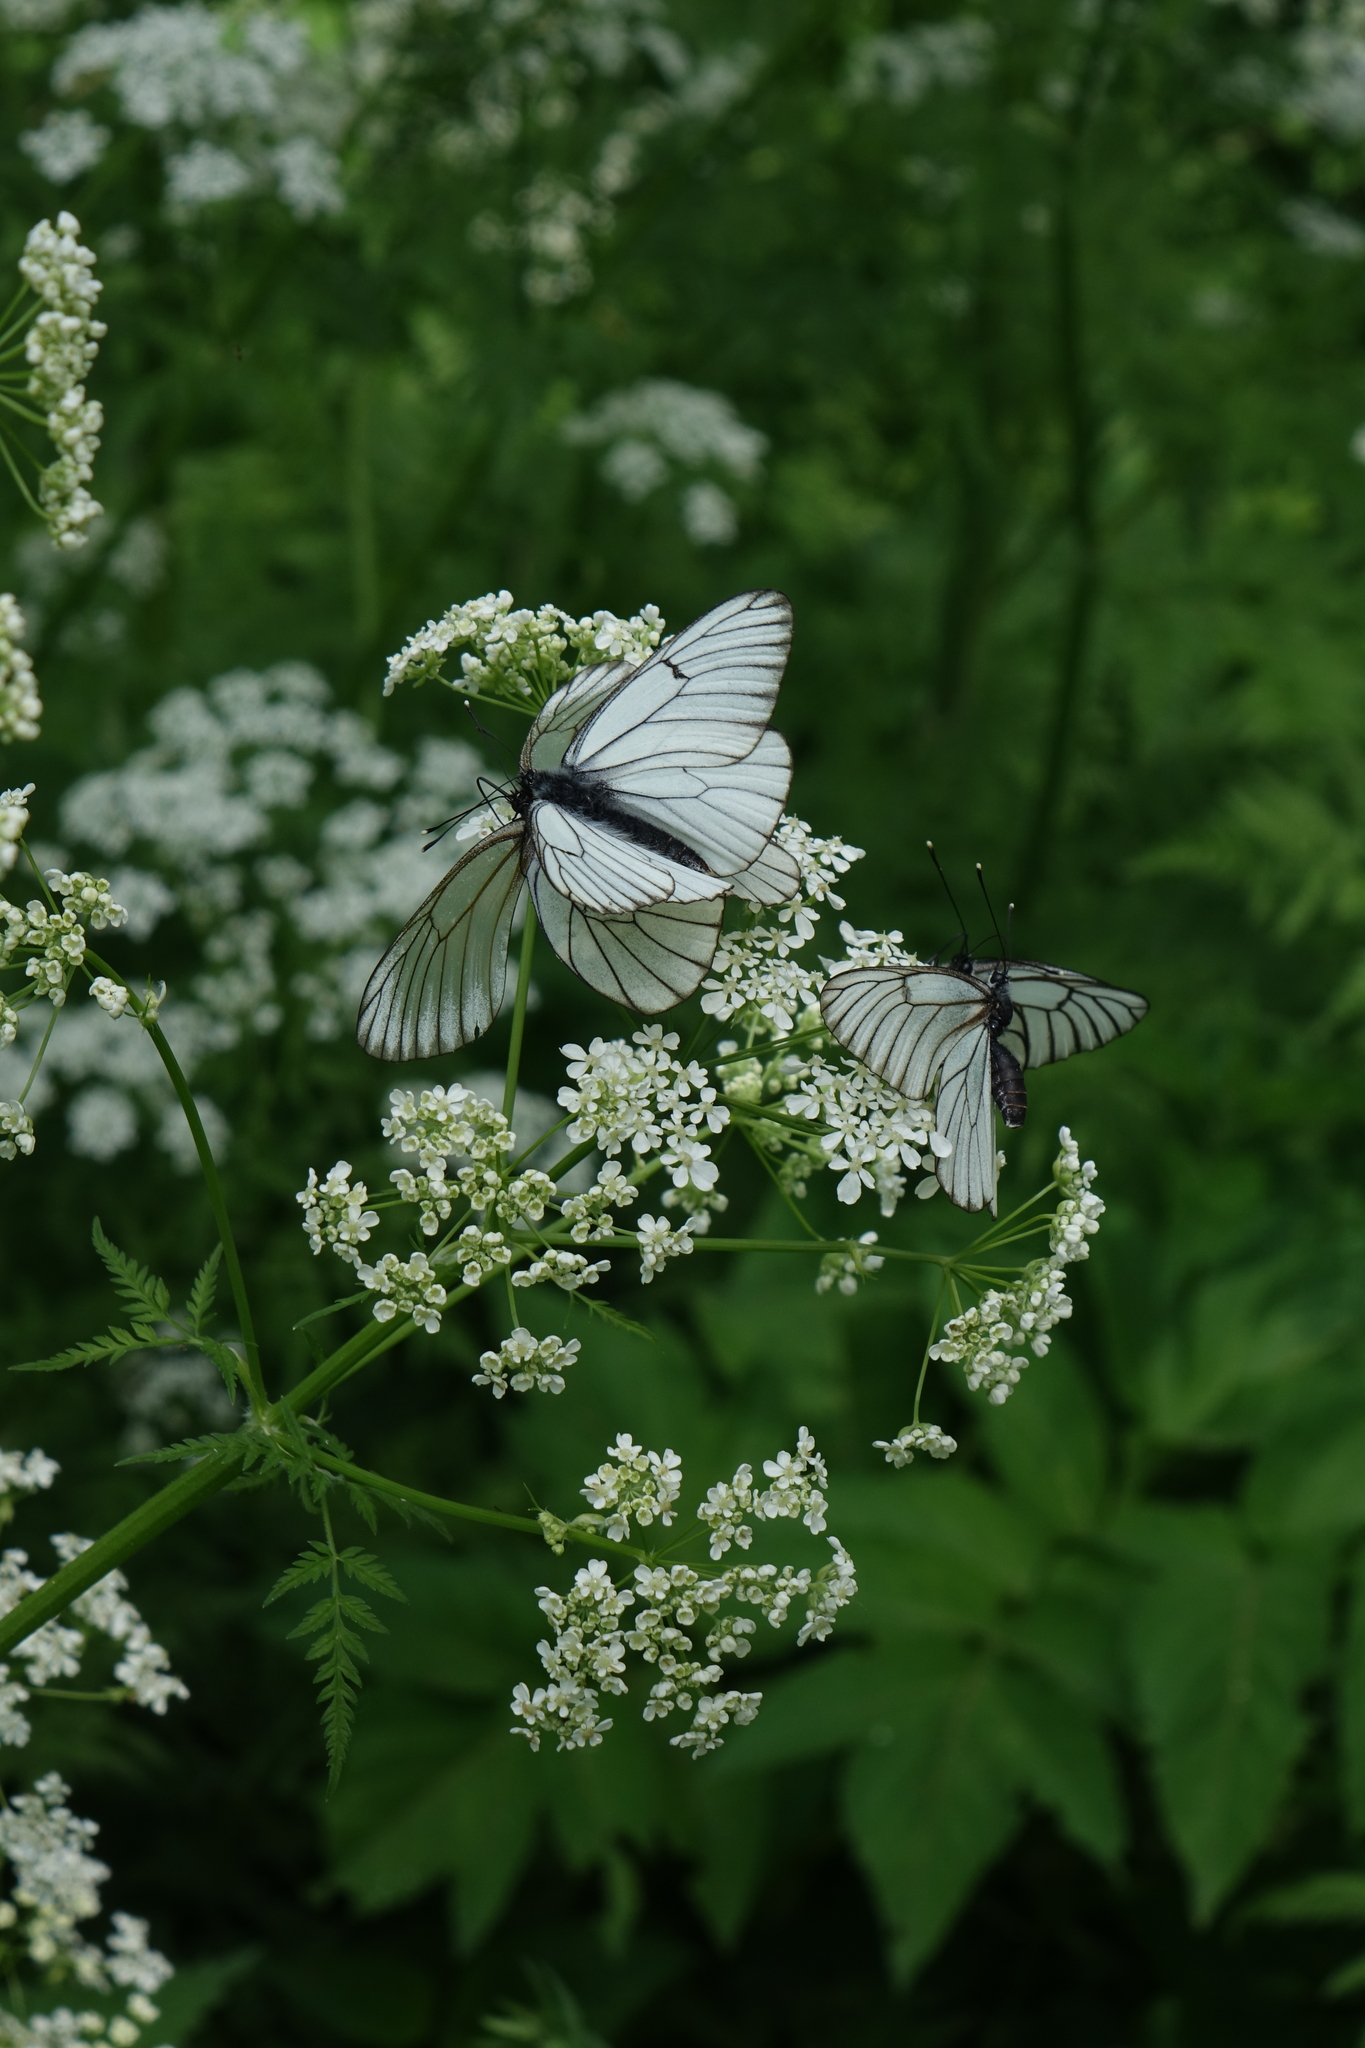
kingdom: Animalia
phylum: Arthropoda
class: Insecta
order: Lepidoptera
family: Pieridae
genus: Aporia
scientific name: Aporia crataegi
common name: Black-veined white
